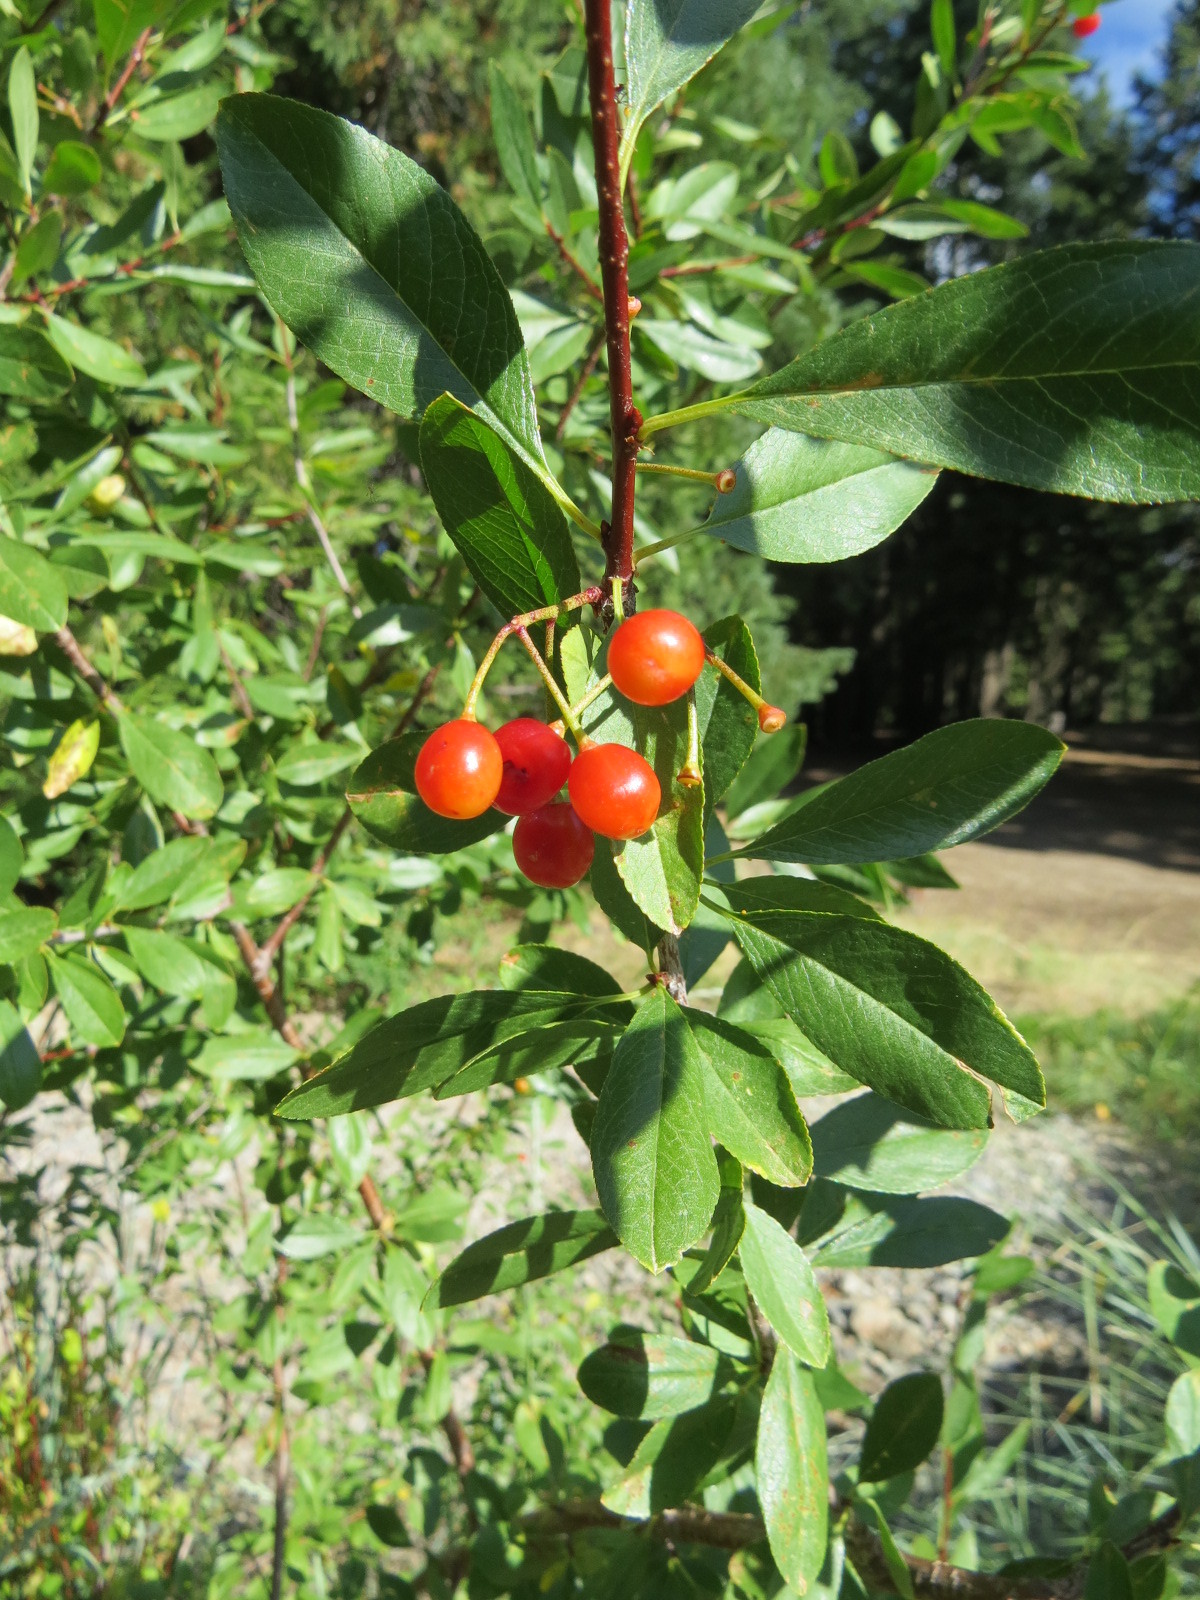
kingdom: Plantae
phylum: Tracheophyta
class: Magnoliopsida
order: Rosales
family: Rosaceae
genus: Prunus
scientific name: Prunus emarginata
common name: Bitter cherry
